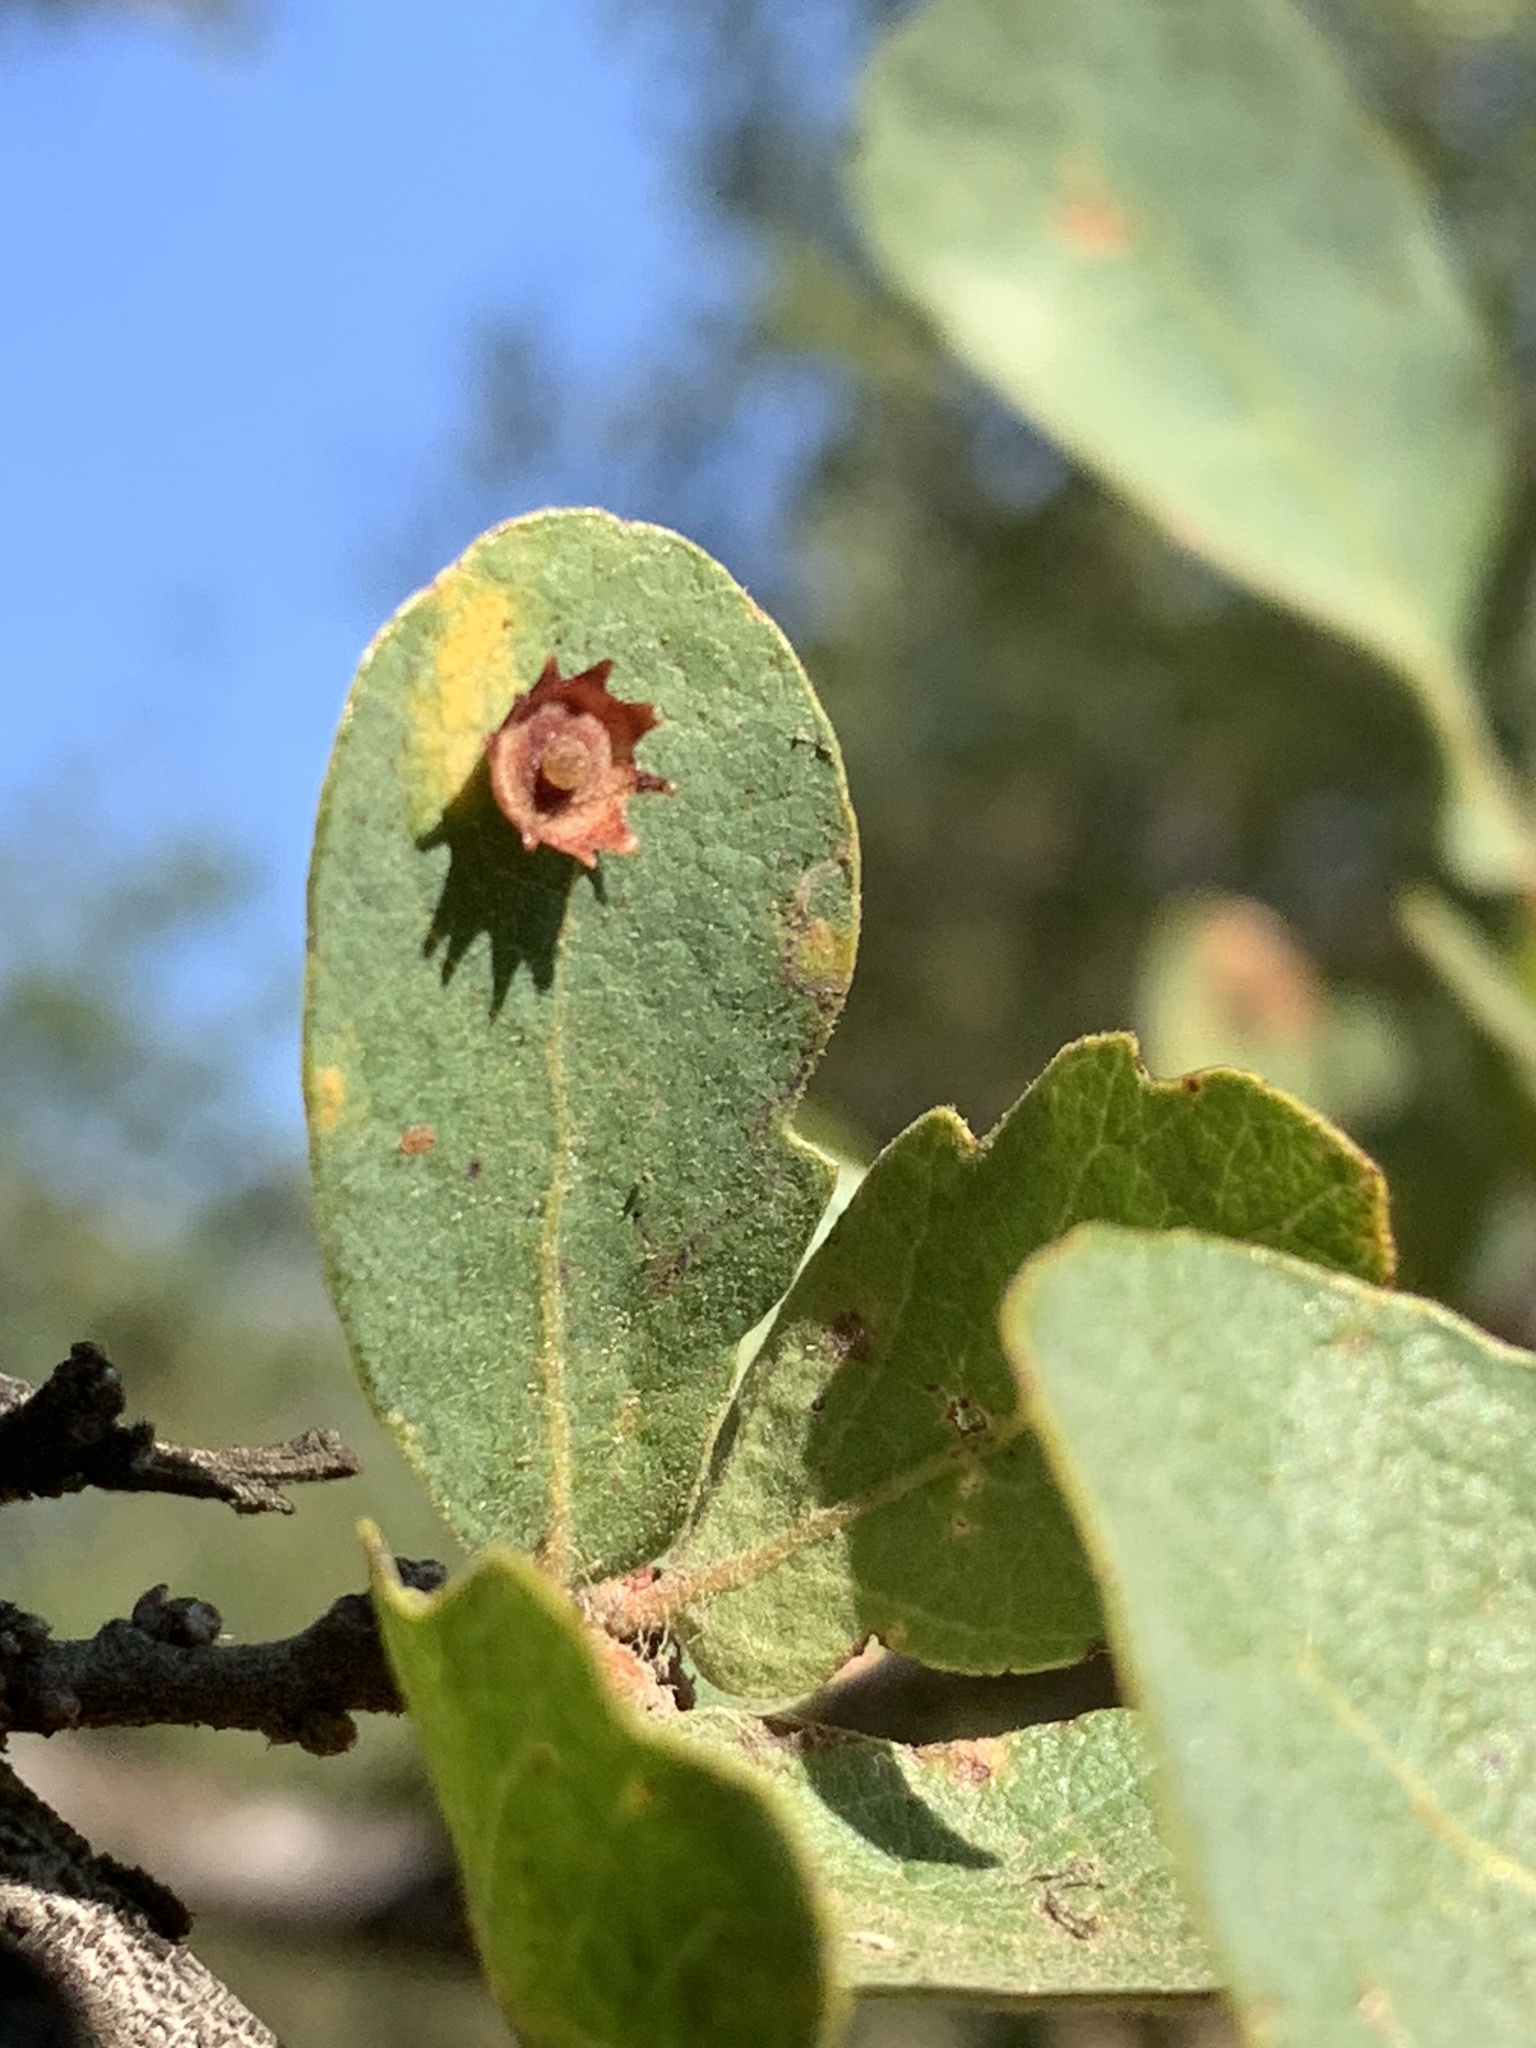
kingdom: Animalia
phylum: Arthropoda
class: Insecta
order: Hymenoptera
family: Cynipidae
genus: Andricus
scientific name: Andricus
